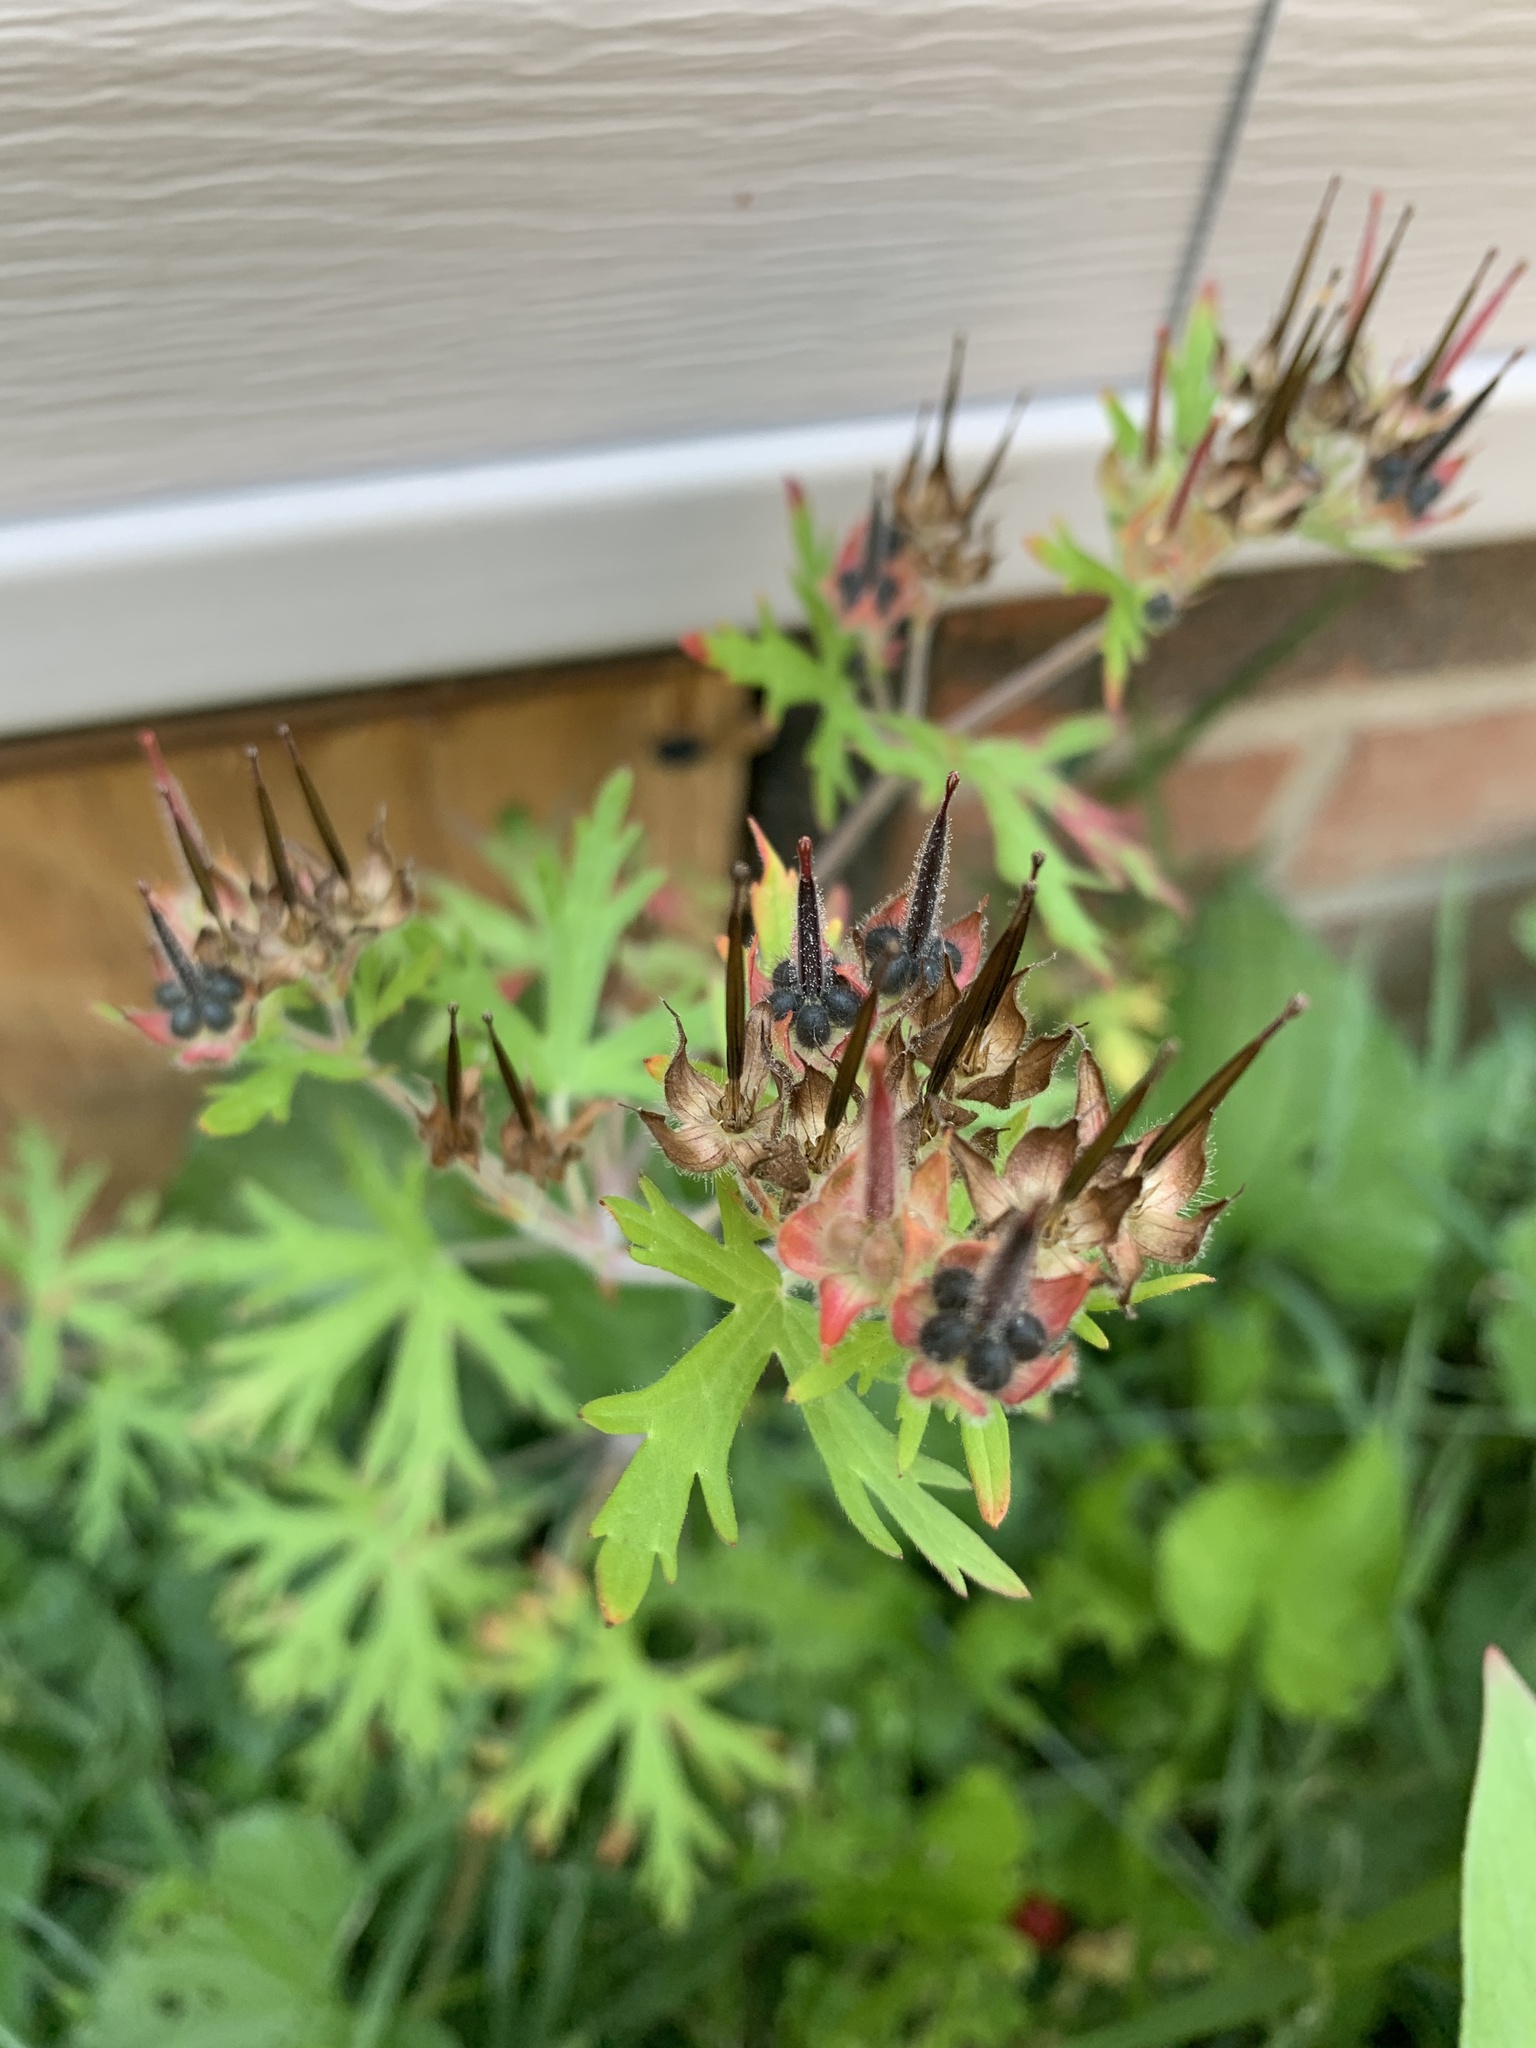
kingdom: Plantae
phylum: Tracheophyta
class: Magnoliopsida
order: Geraniales
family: Geraniaceae
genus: Geranium
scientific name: Geranium carolinianum
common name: Carolina crane's-bill
